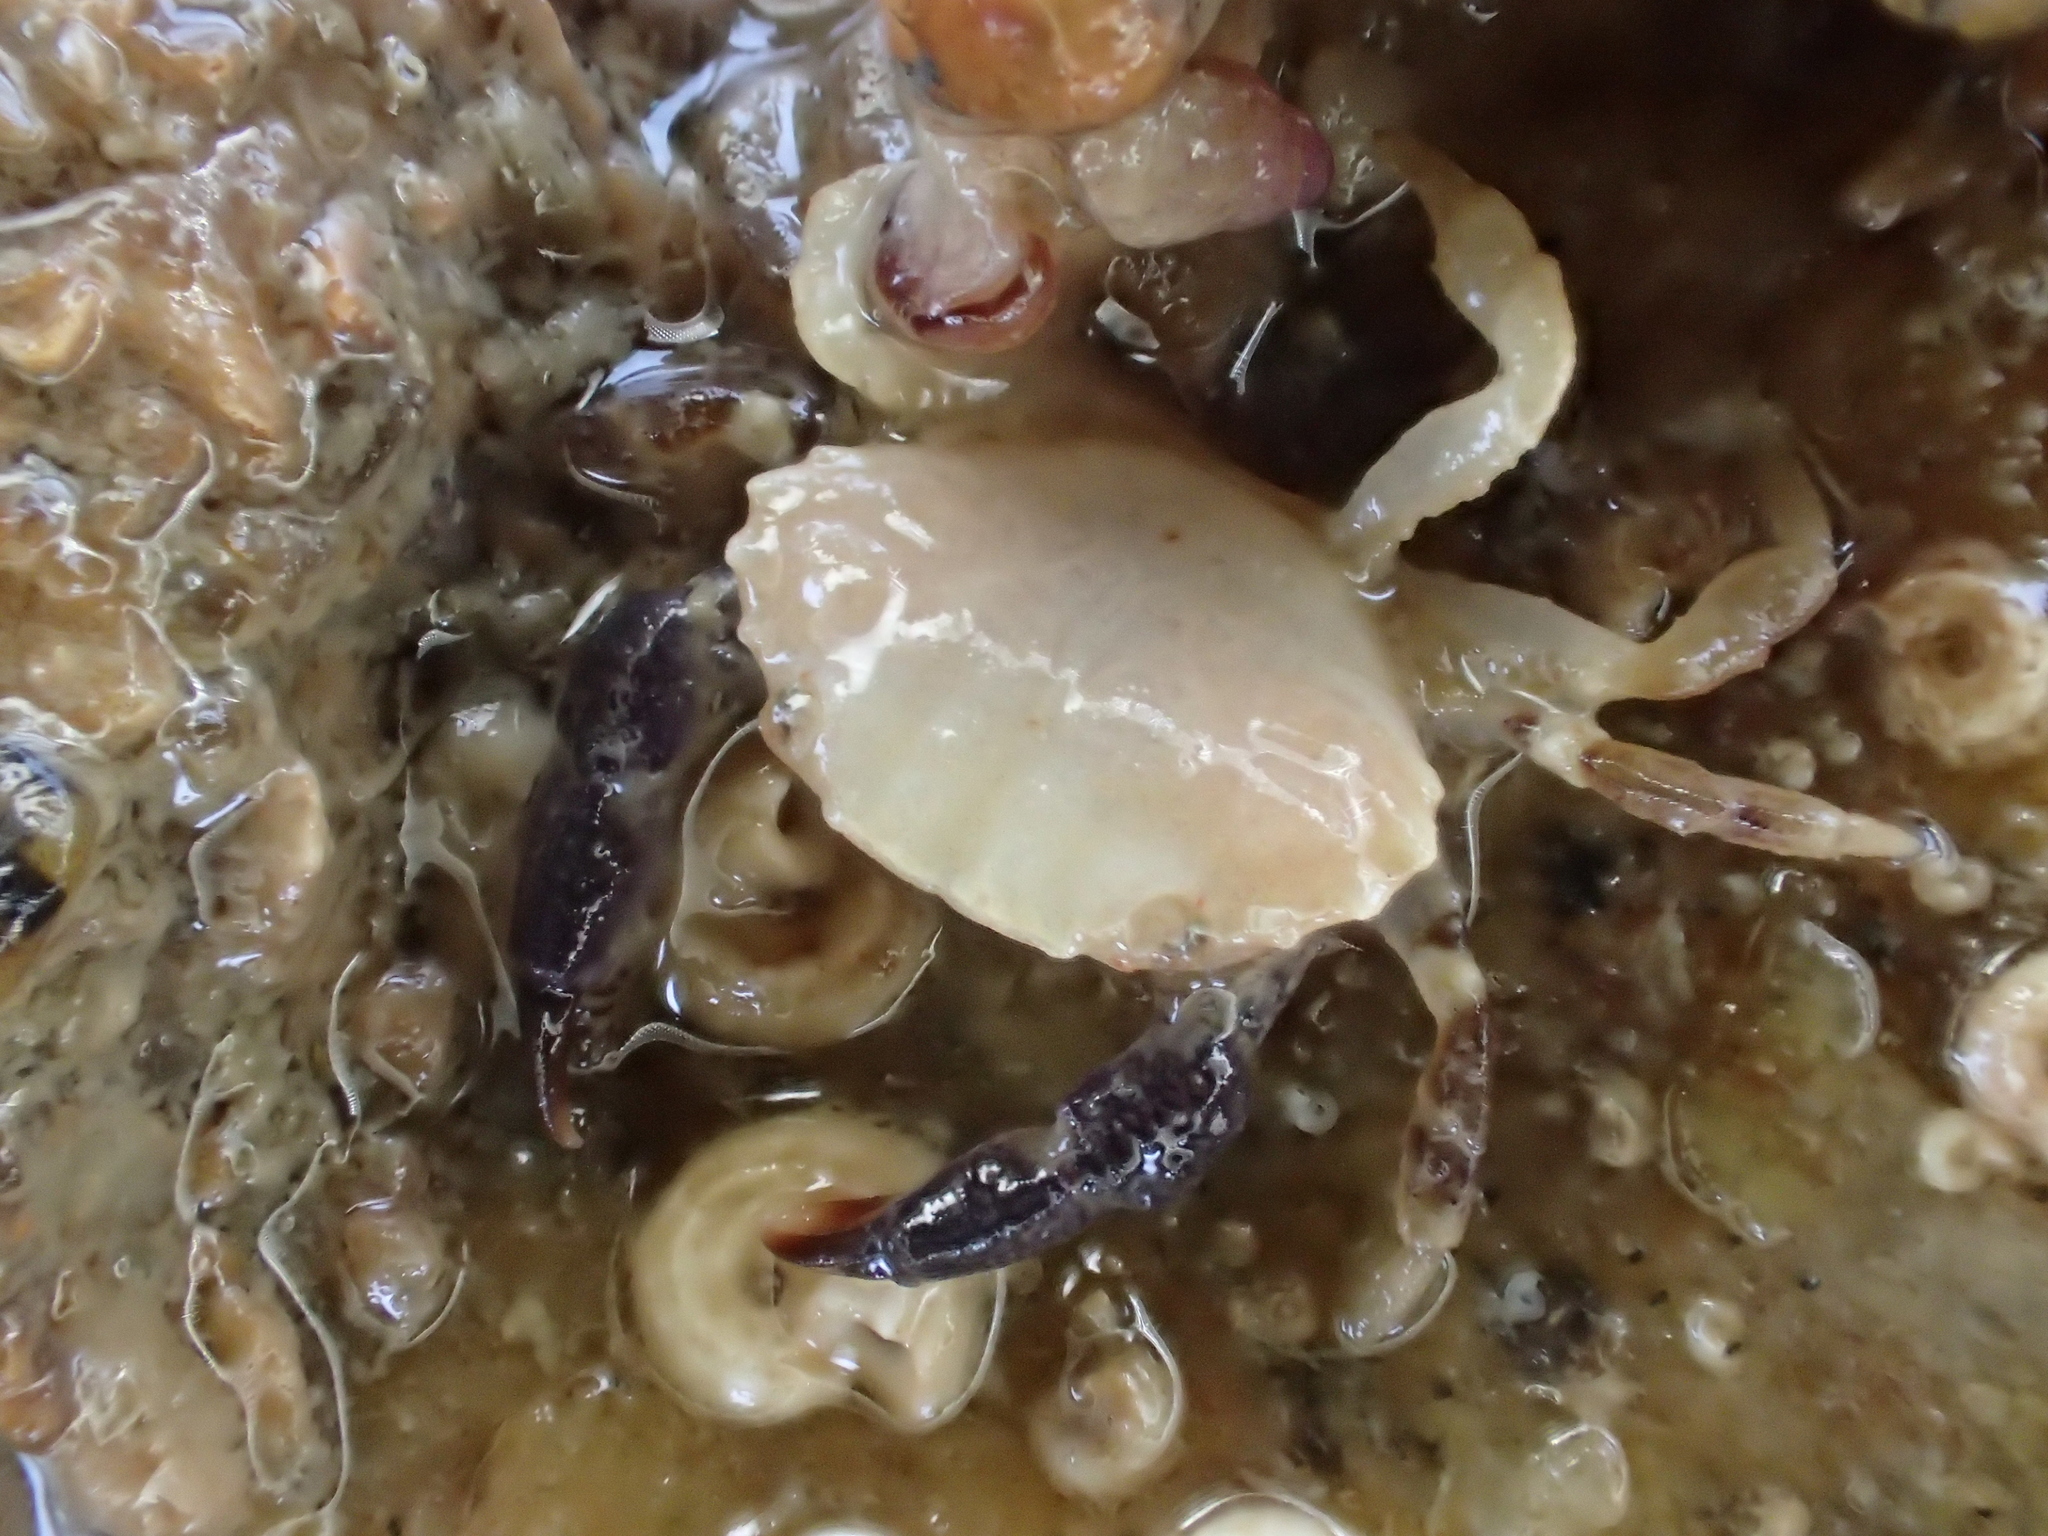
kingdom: Animalia
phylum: Arthropoda
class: Malacostraca
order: Decapoda
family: Xanthidae
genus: Xantho
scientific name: Xantho hydrophilus
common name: Montagu's crab
